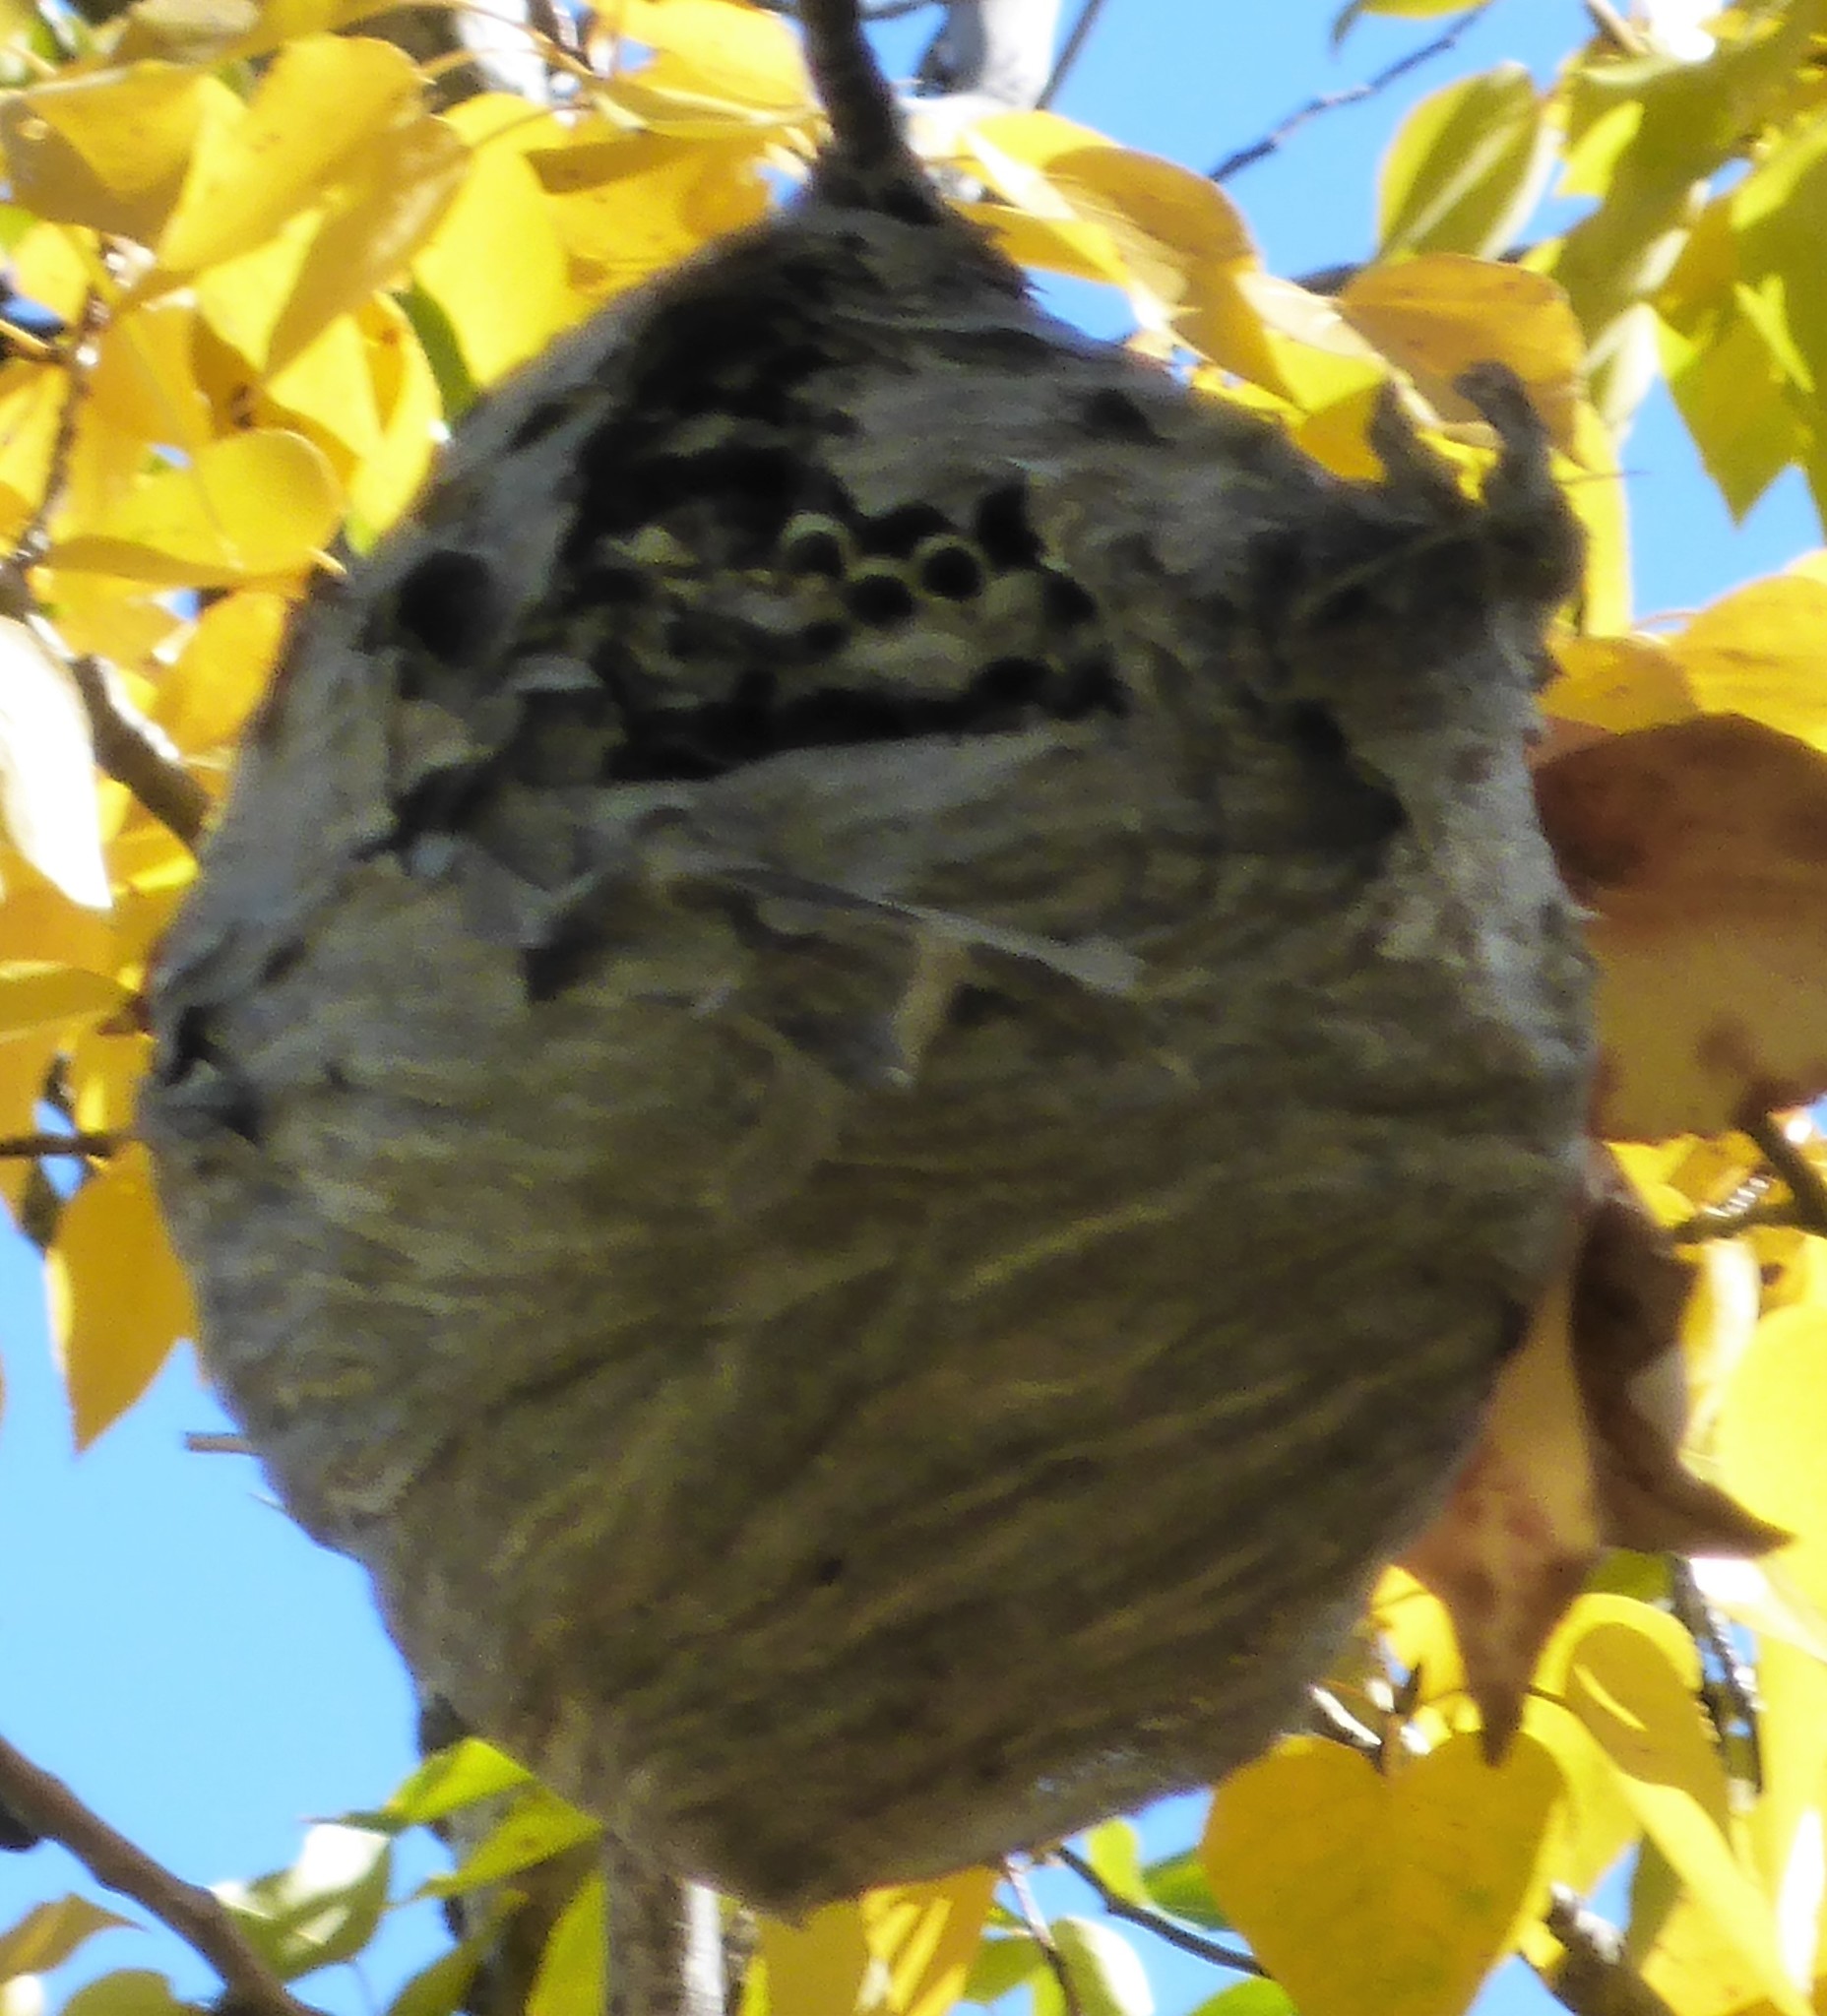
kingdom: Animalia
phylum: Arthropoda
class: Insecta
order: Hymenoptera
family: Vespidae
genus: Dolichovespula
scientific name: Dolichovespula
